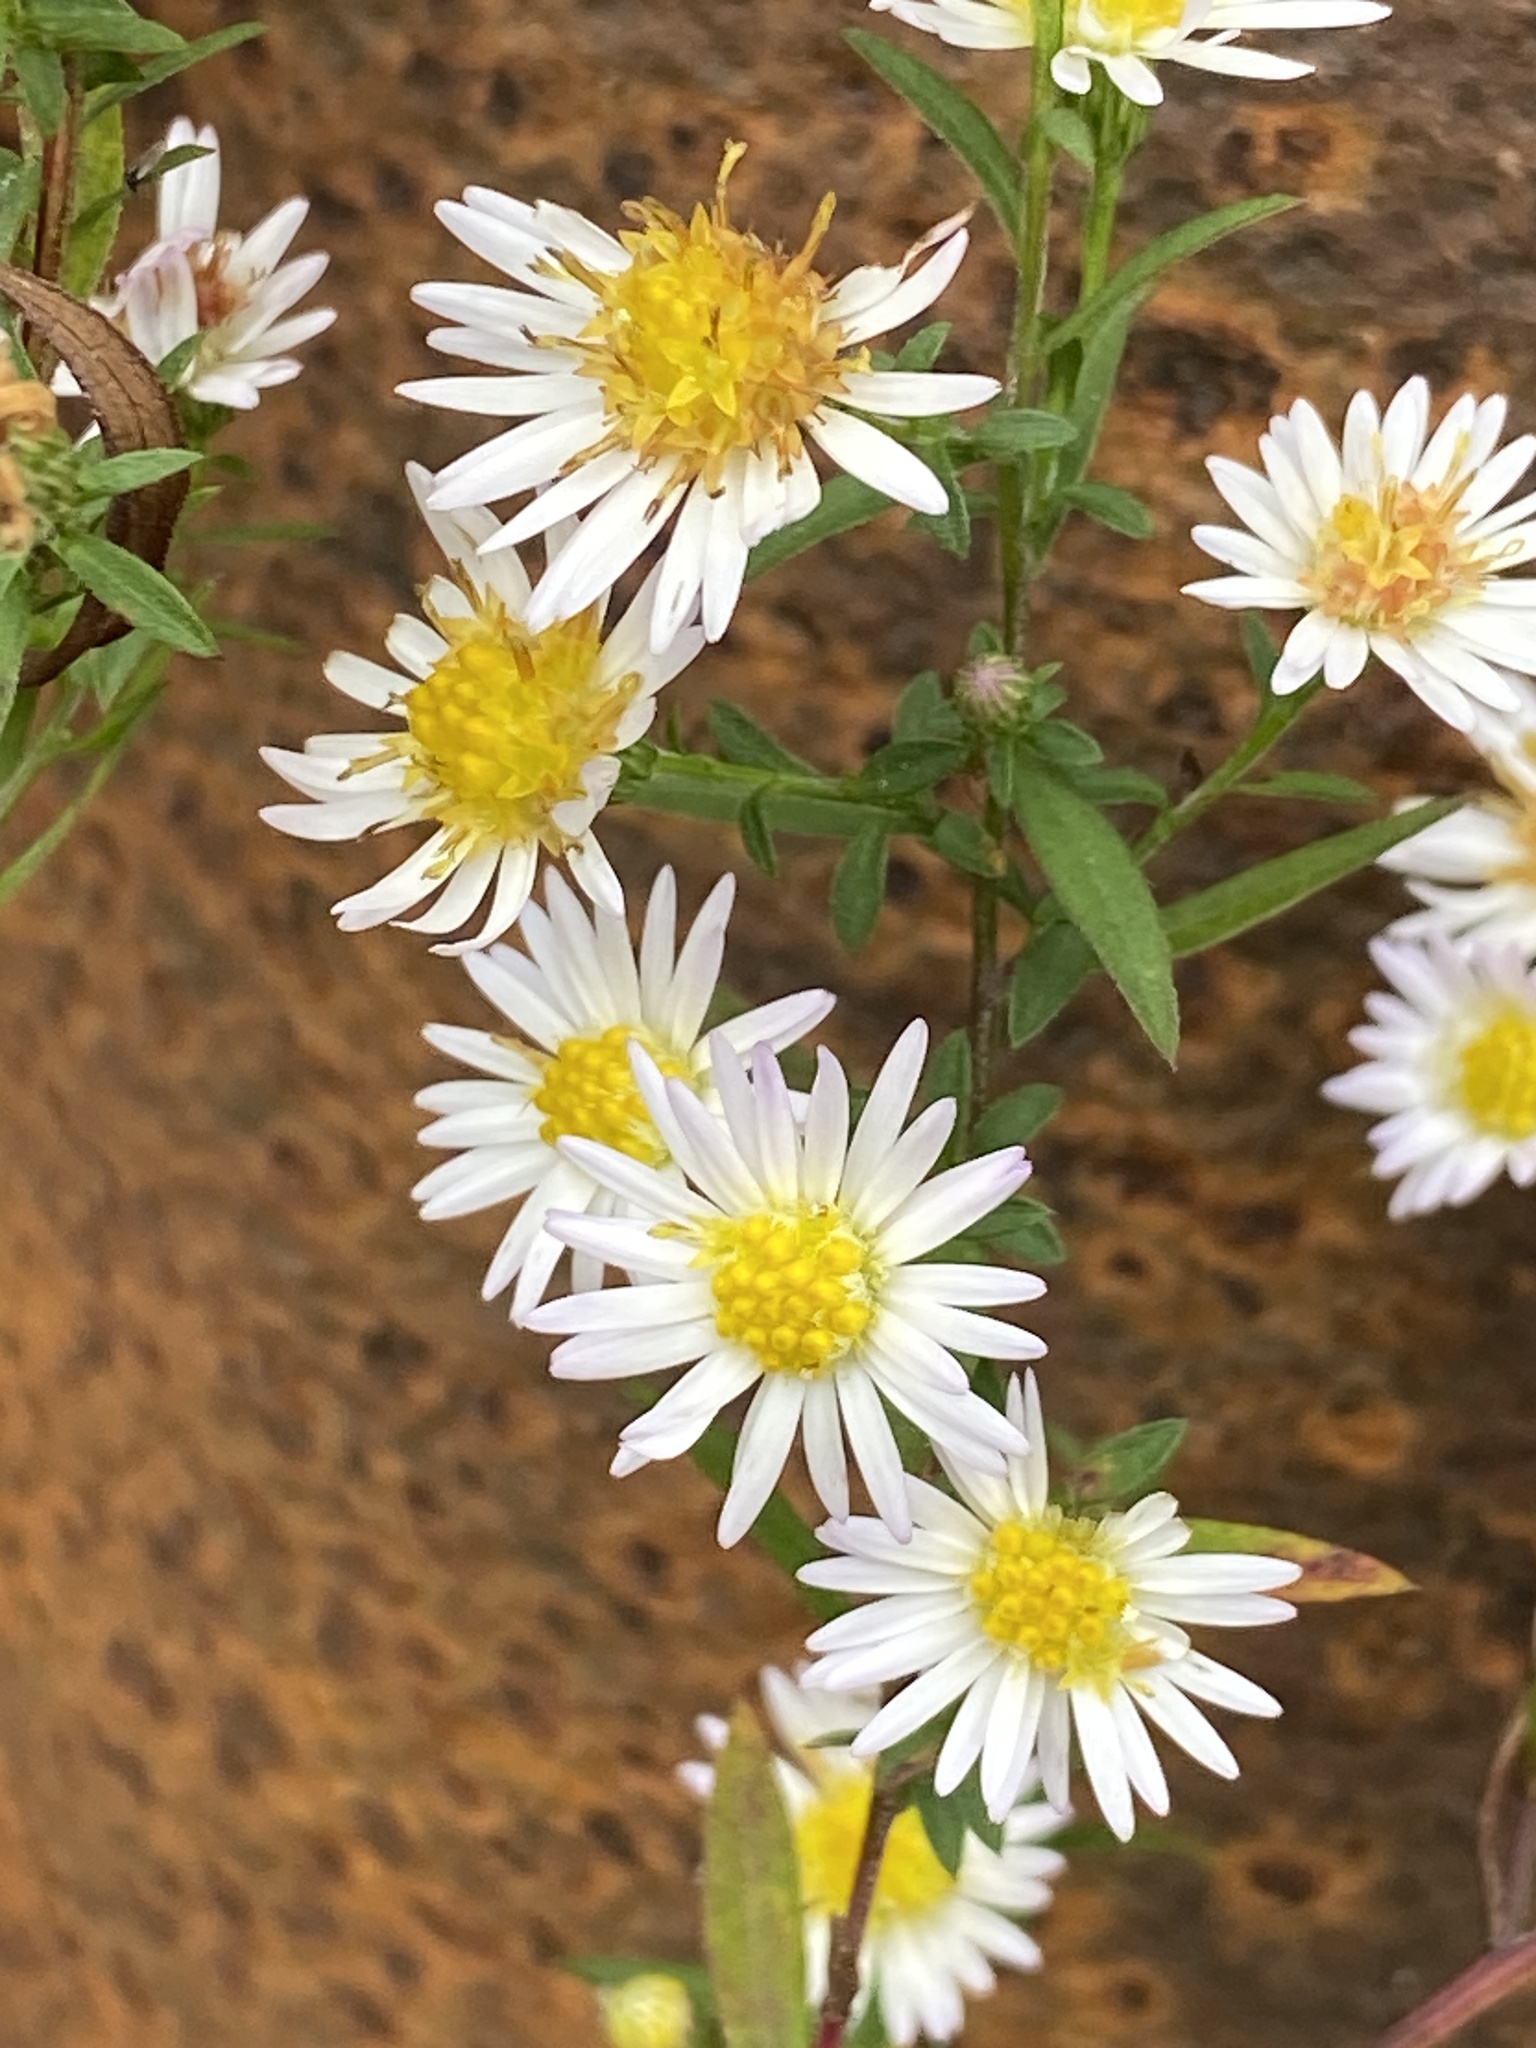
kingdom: Plantae
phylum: Tracheophyta
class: Magnoliopsida
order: Asterales
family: Asteraceae
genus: Symphyotrichum
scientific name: Symphyotrichum lanceolatum
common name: Panicled aster
